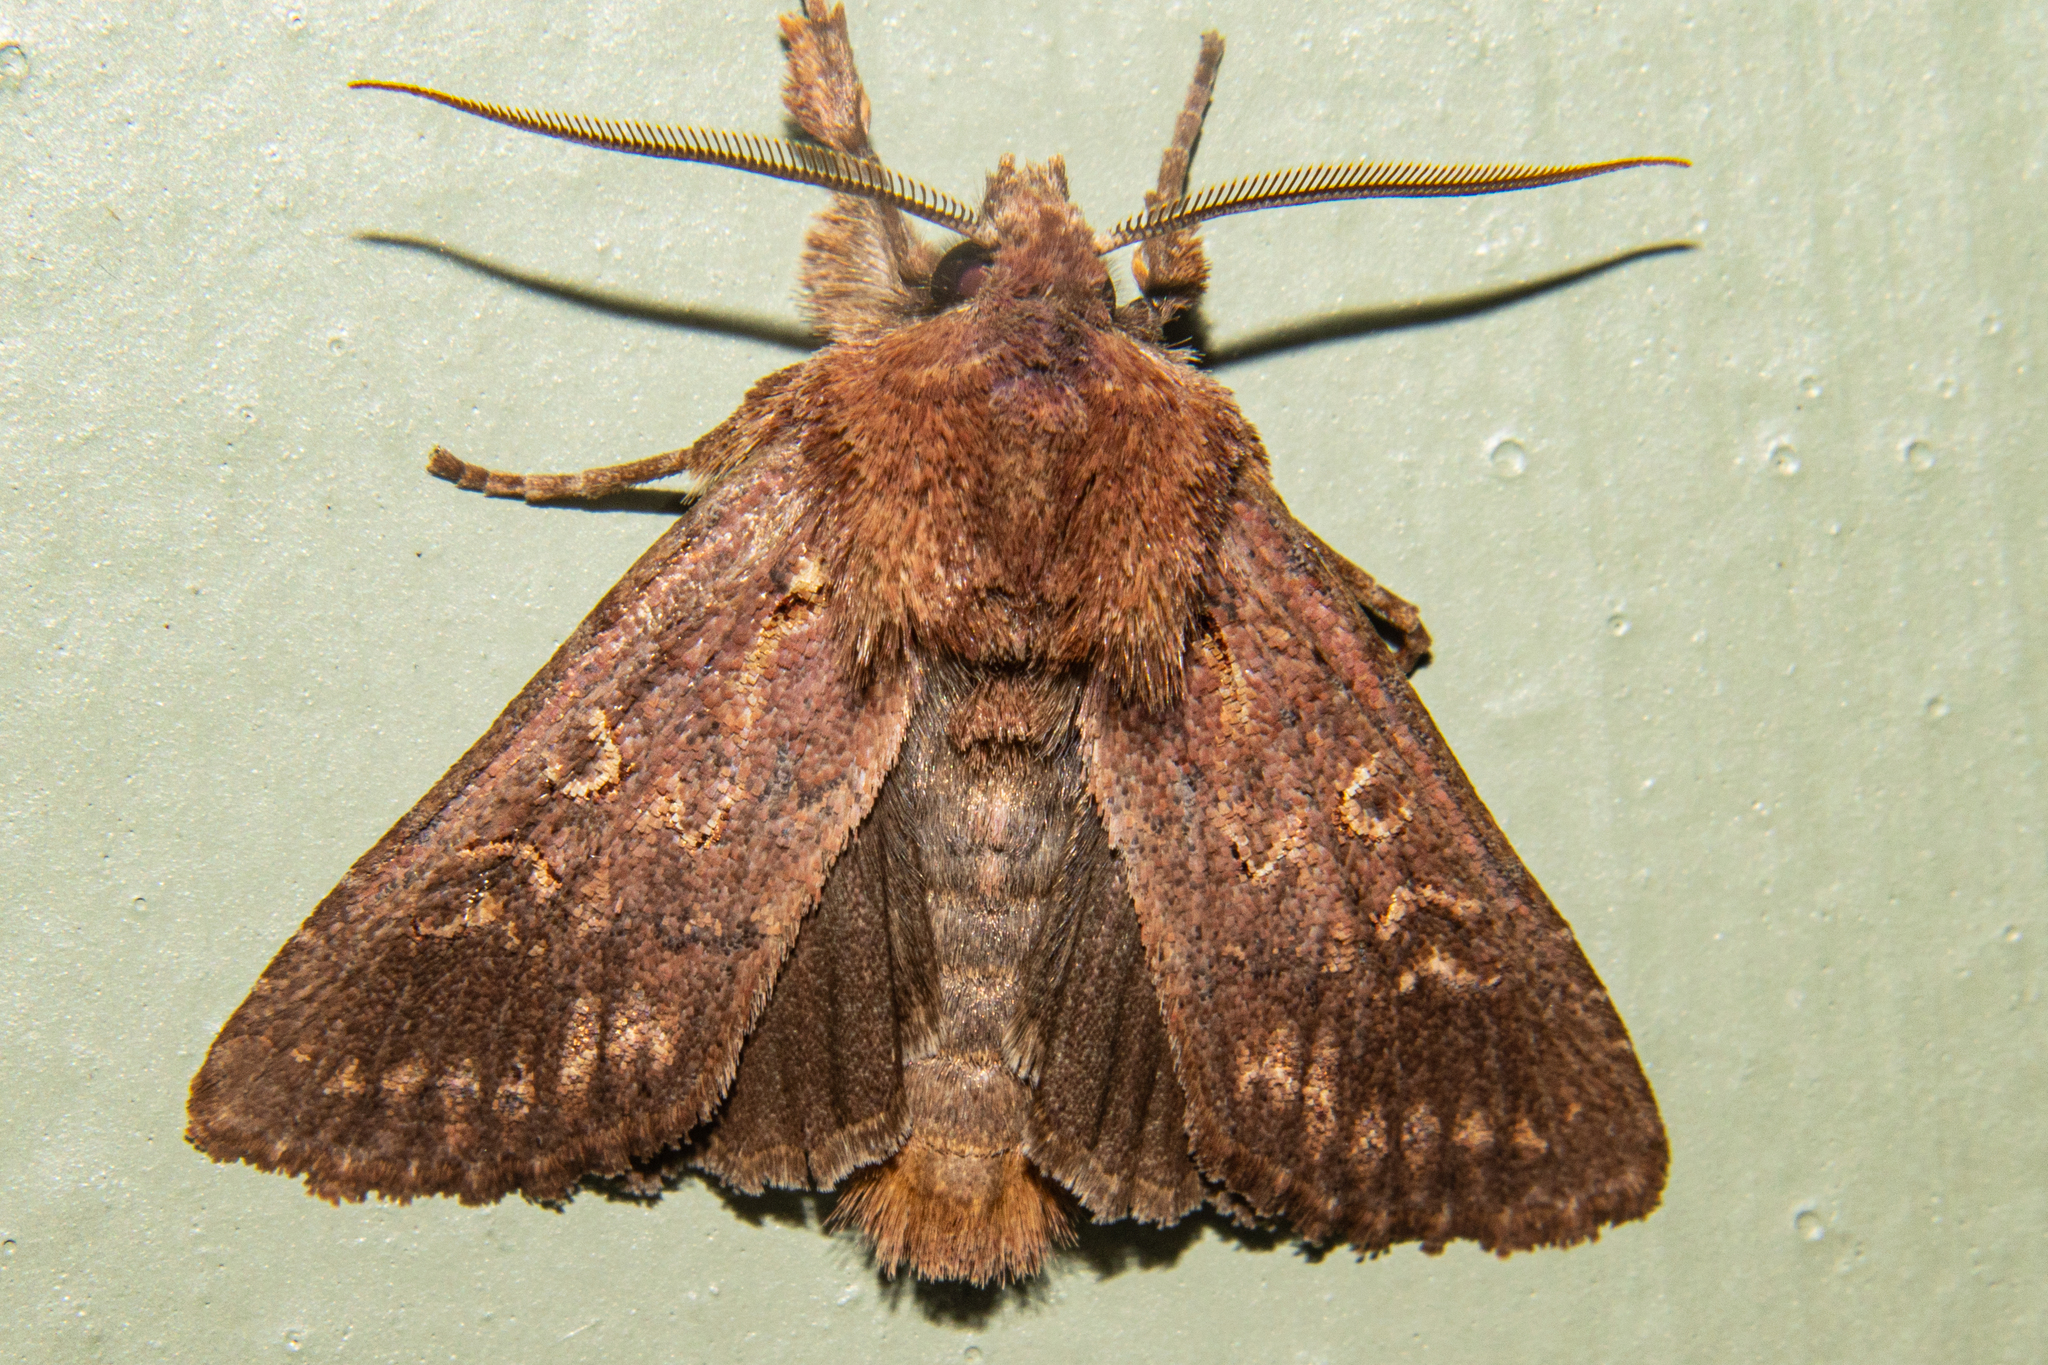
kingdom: Animalia
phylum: Arthropoda
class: Insecta
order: Lepidoptera
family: Noctuidae
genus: Ichneutica
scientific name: Ichneutica chryserythra
